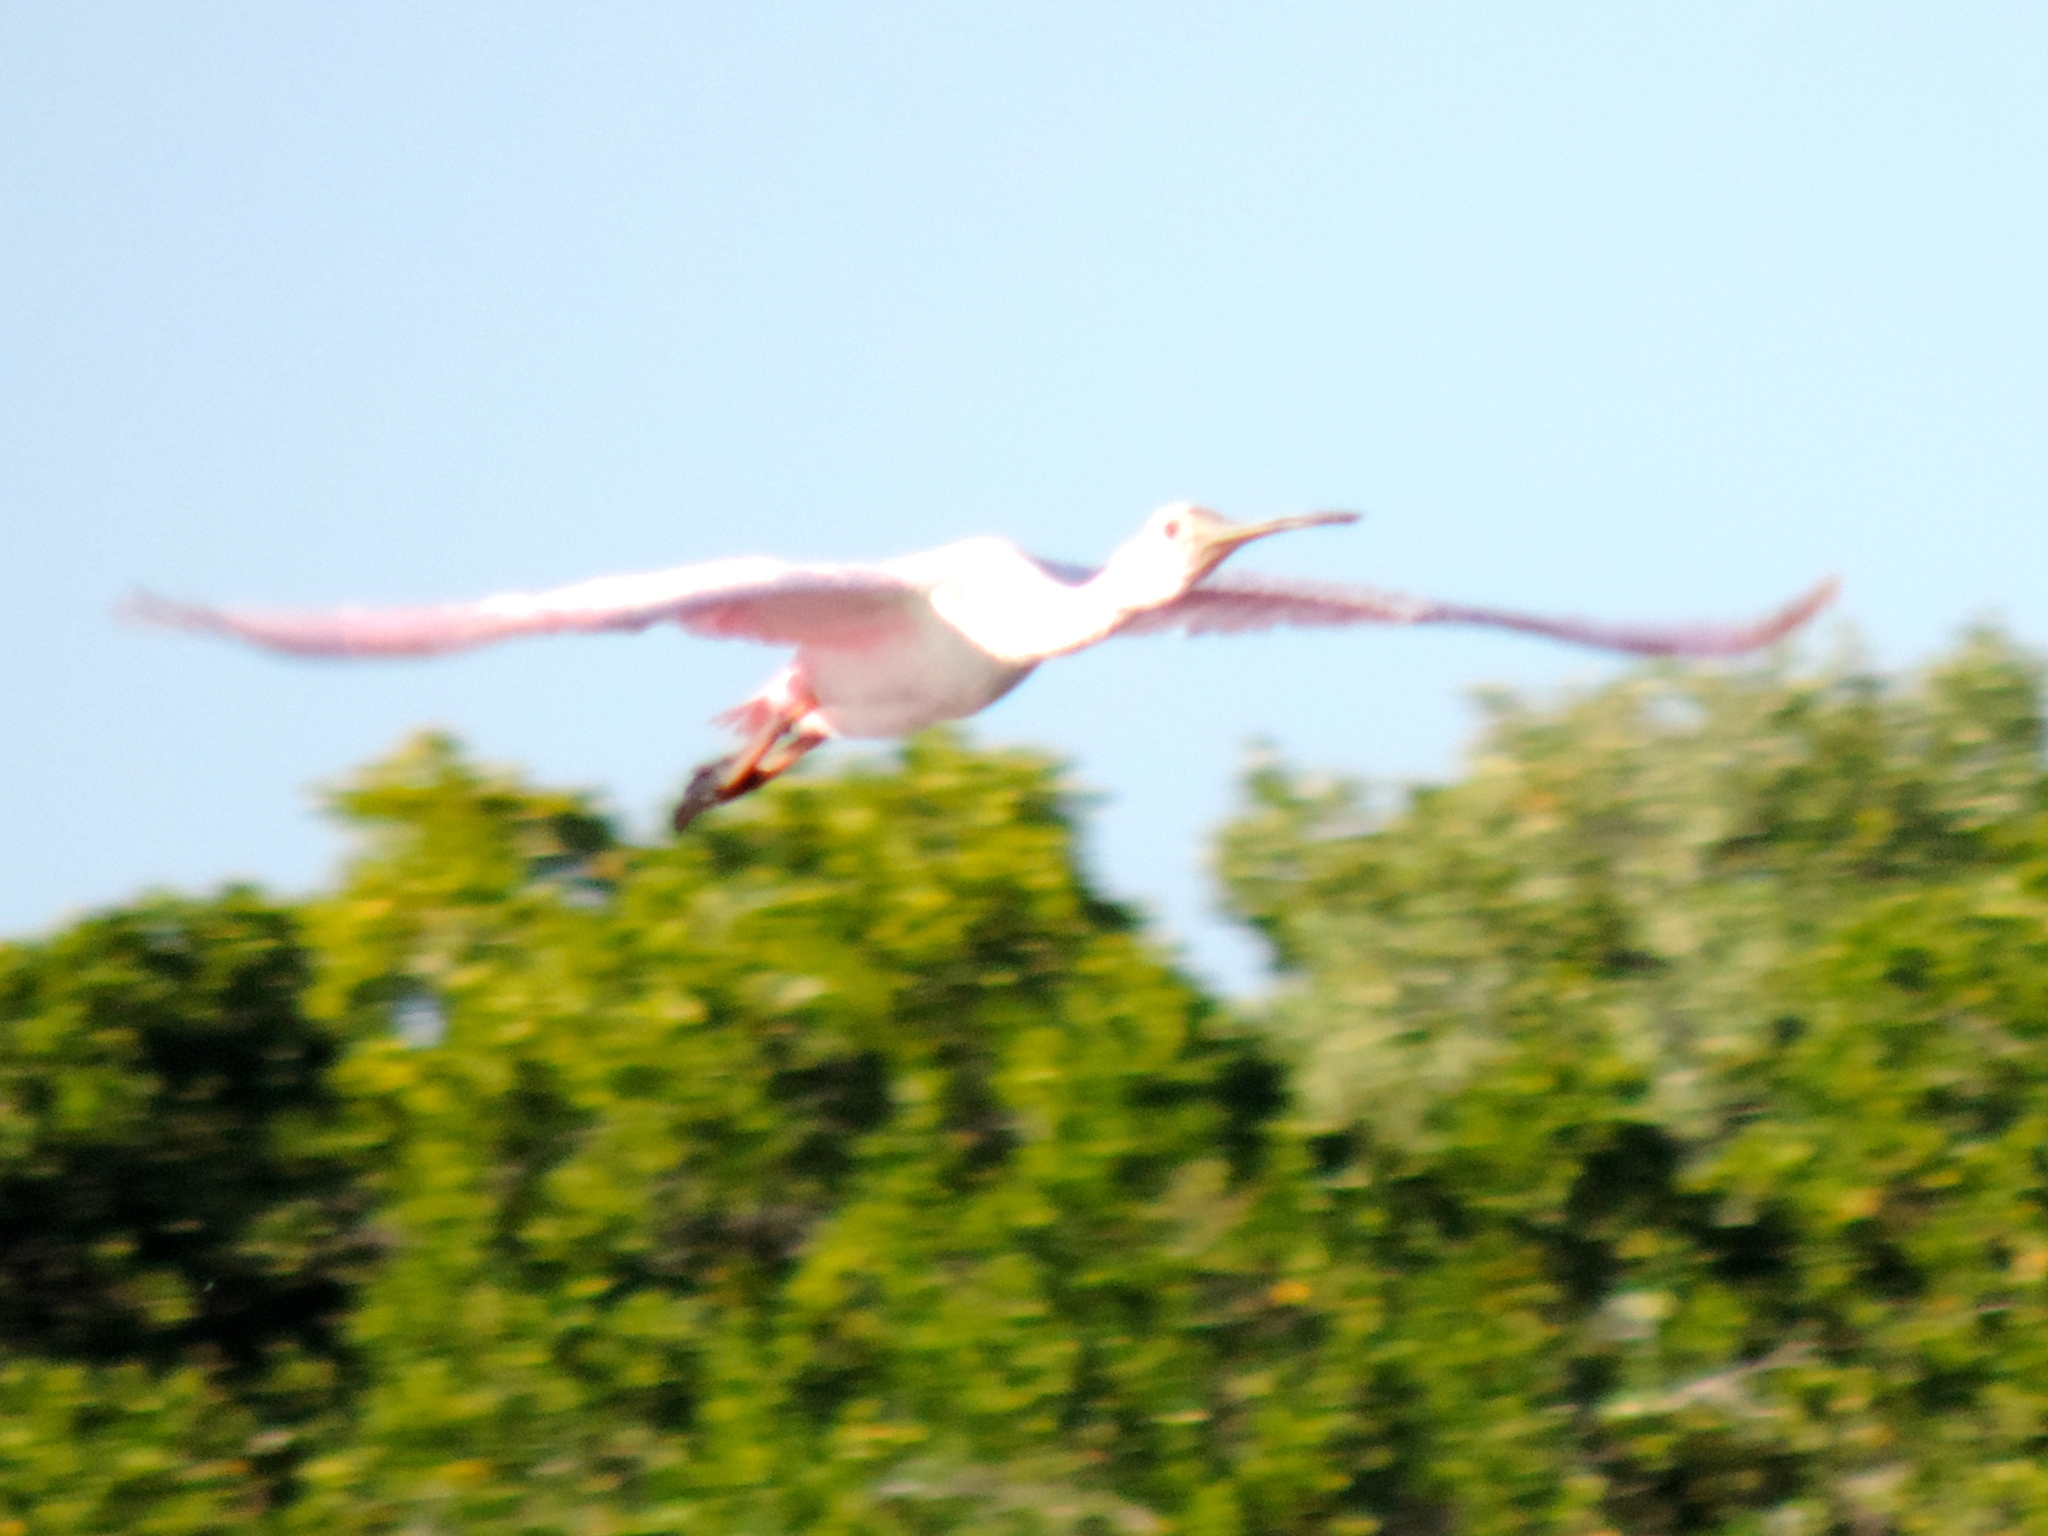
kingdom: Animalia
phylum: Chordata
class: Aves
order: Pelecaniformes
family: Threskiornithidae
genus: Platalea
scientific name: Platalea ajaja
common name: Roseate spoonbill
